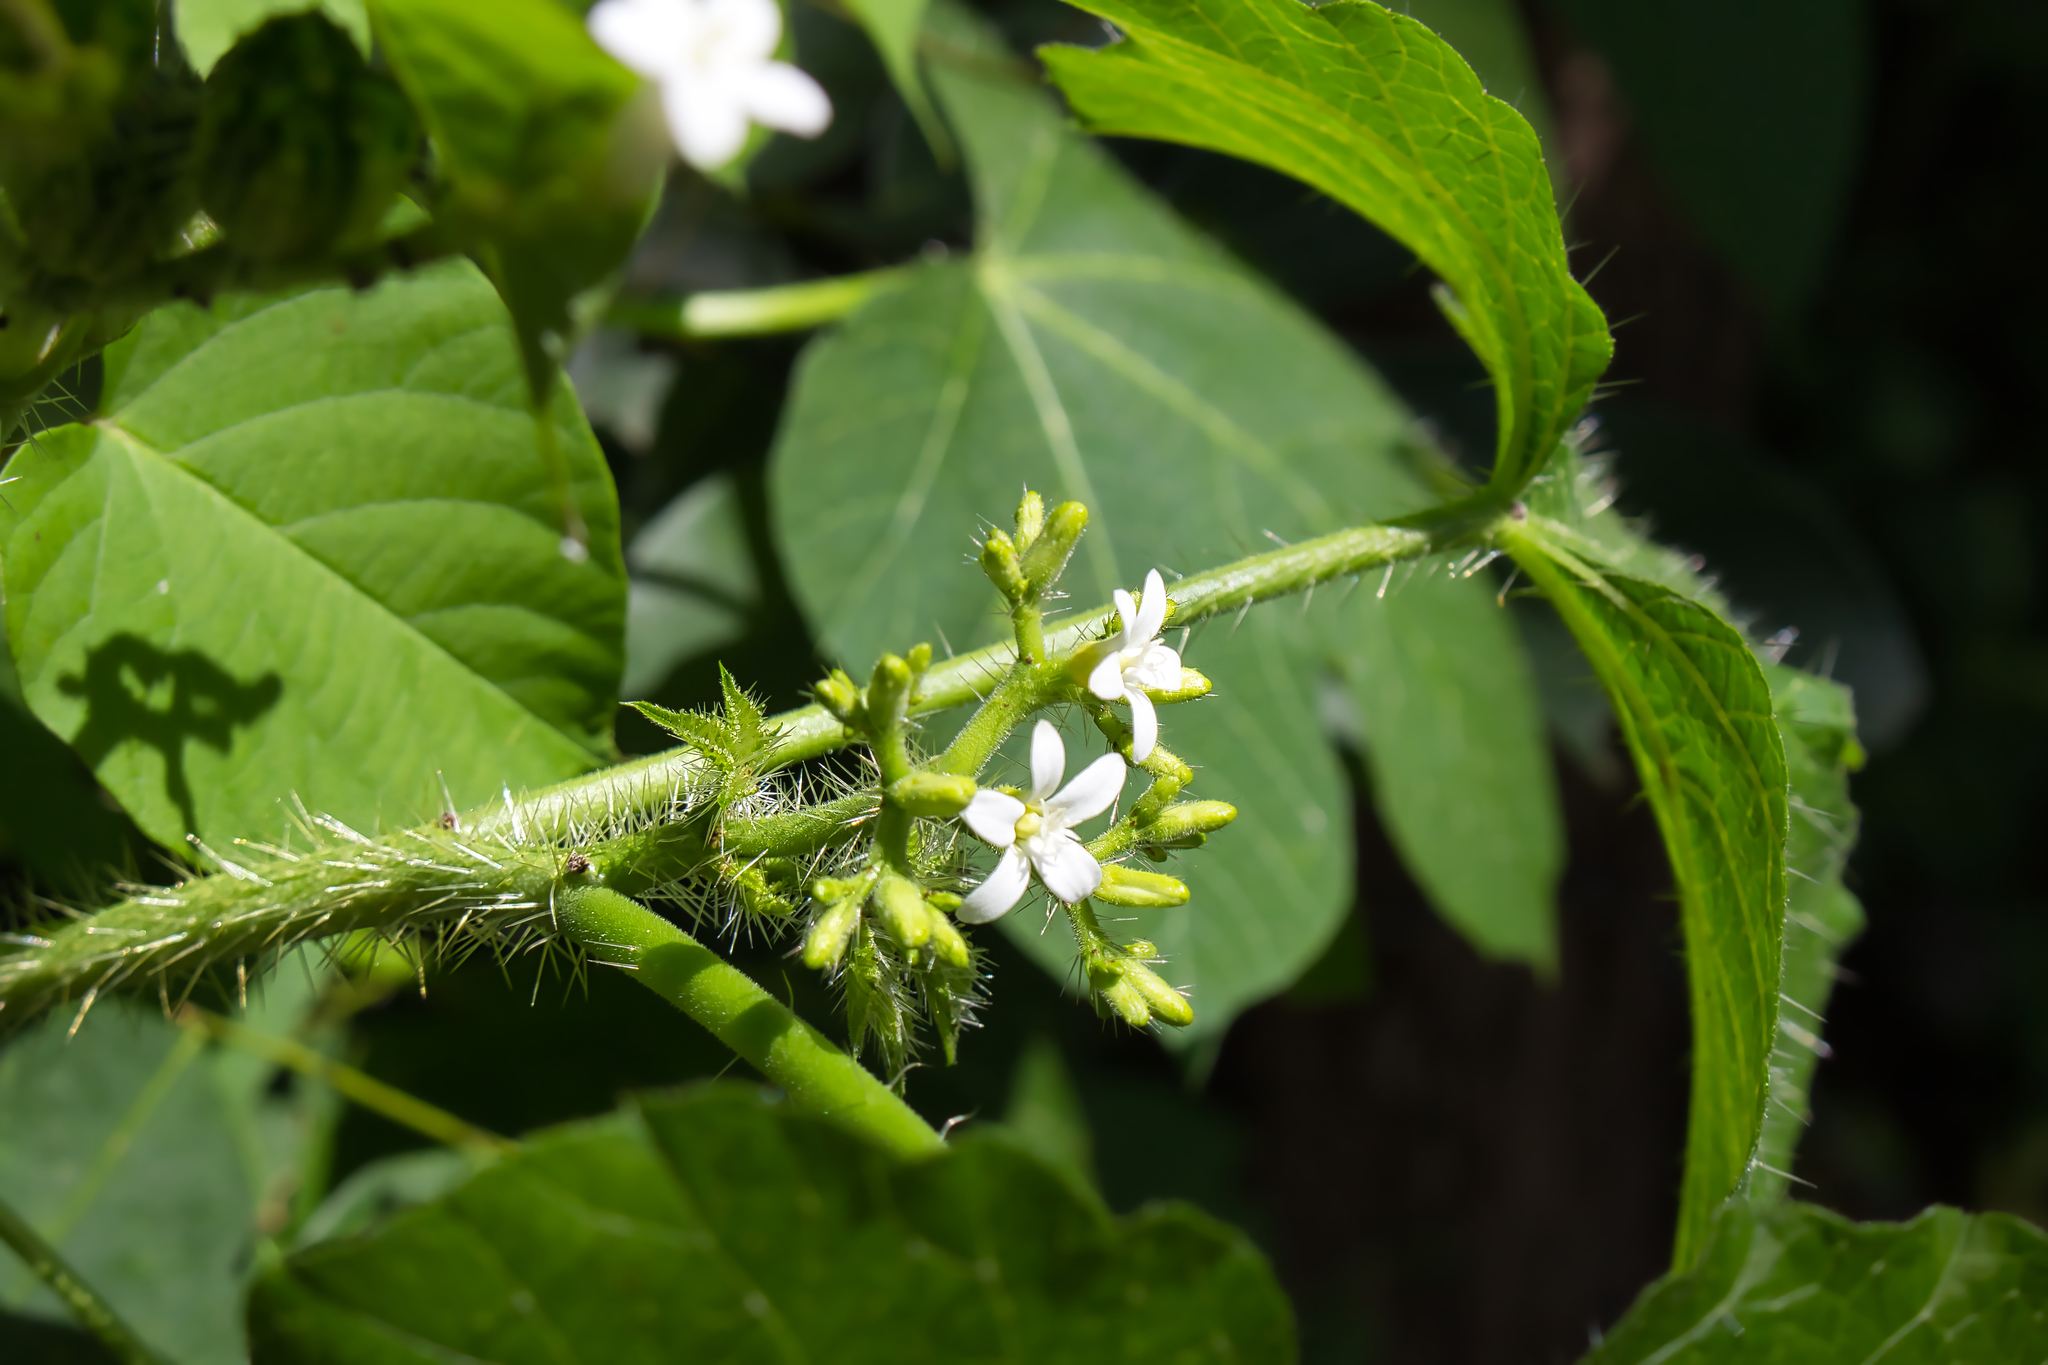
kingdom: Plantae
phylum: Tracheophyta
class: Magnoliopsida
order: Malpighiales
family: Euphorbiaceae
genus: Cnidoscolus
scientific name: Cnidoscolus urens
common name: Bull-nettle
